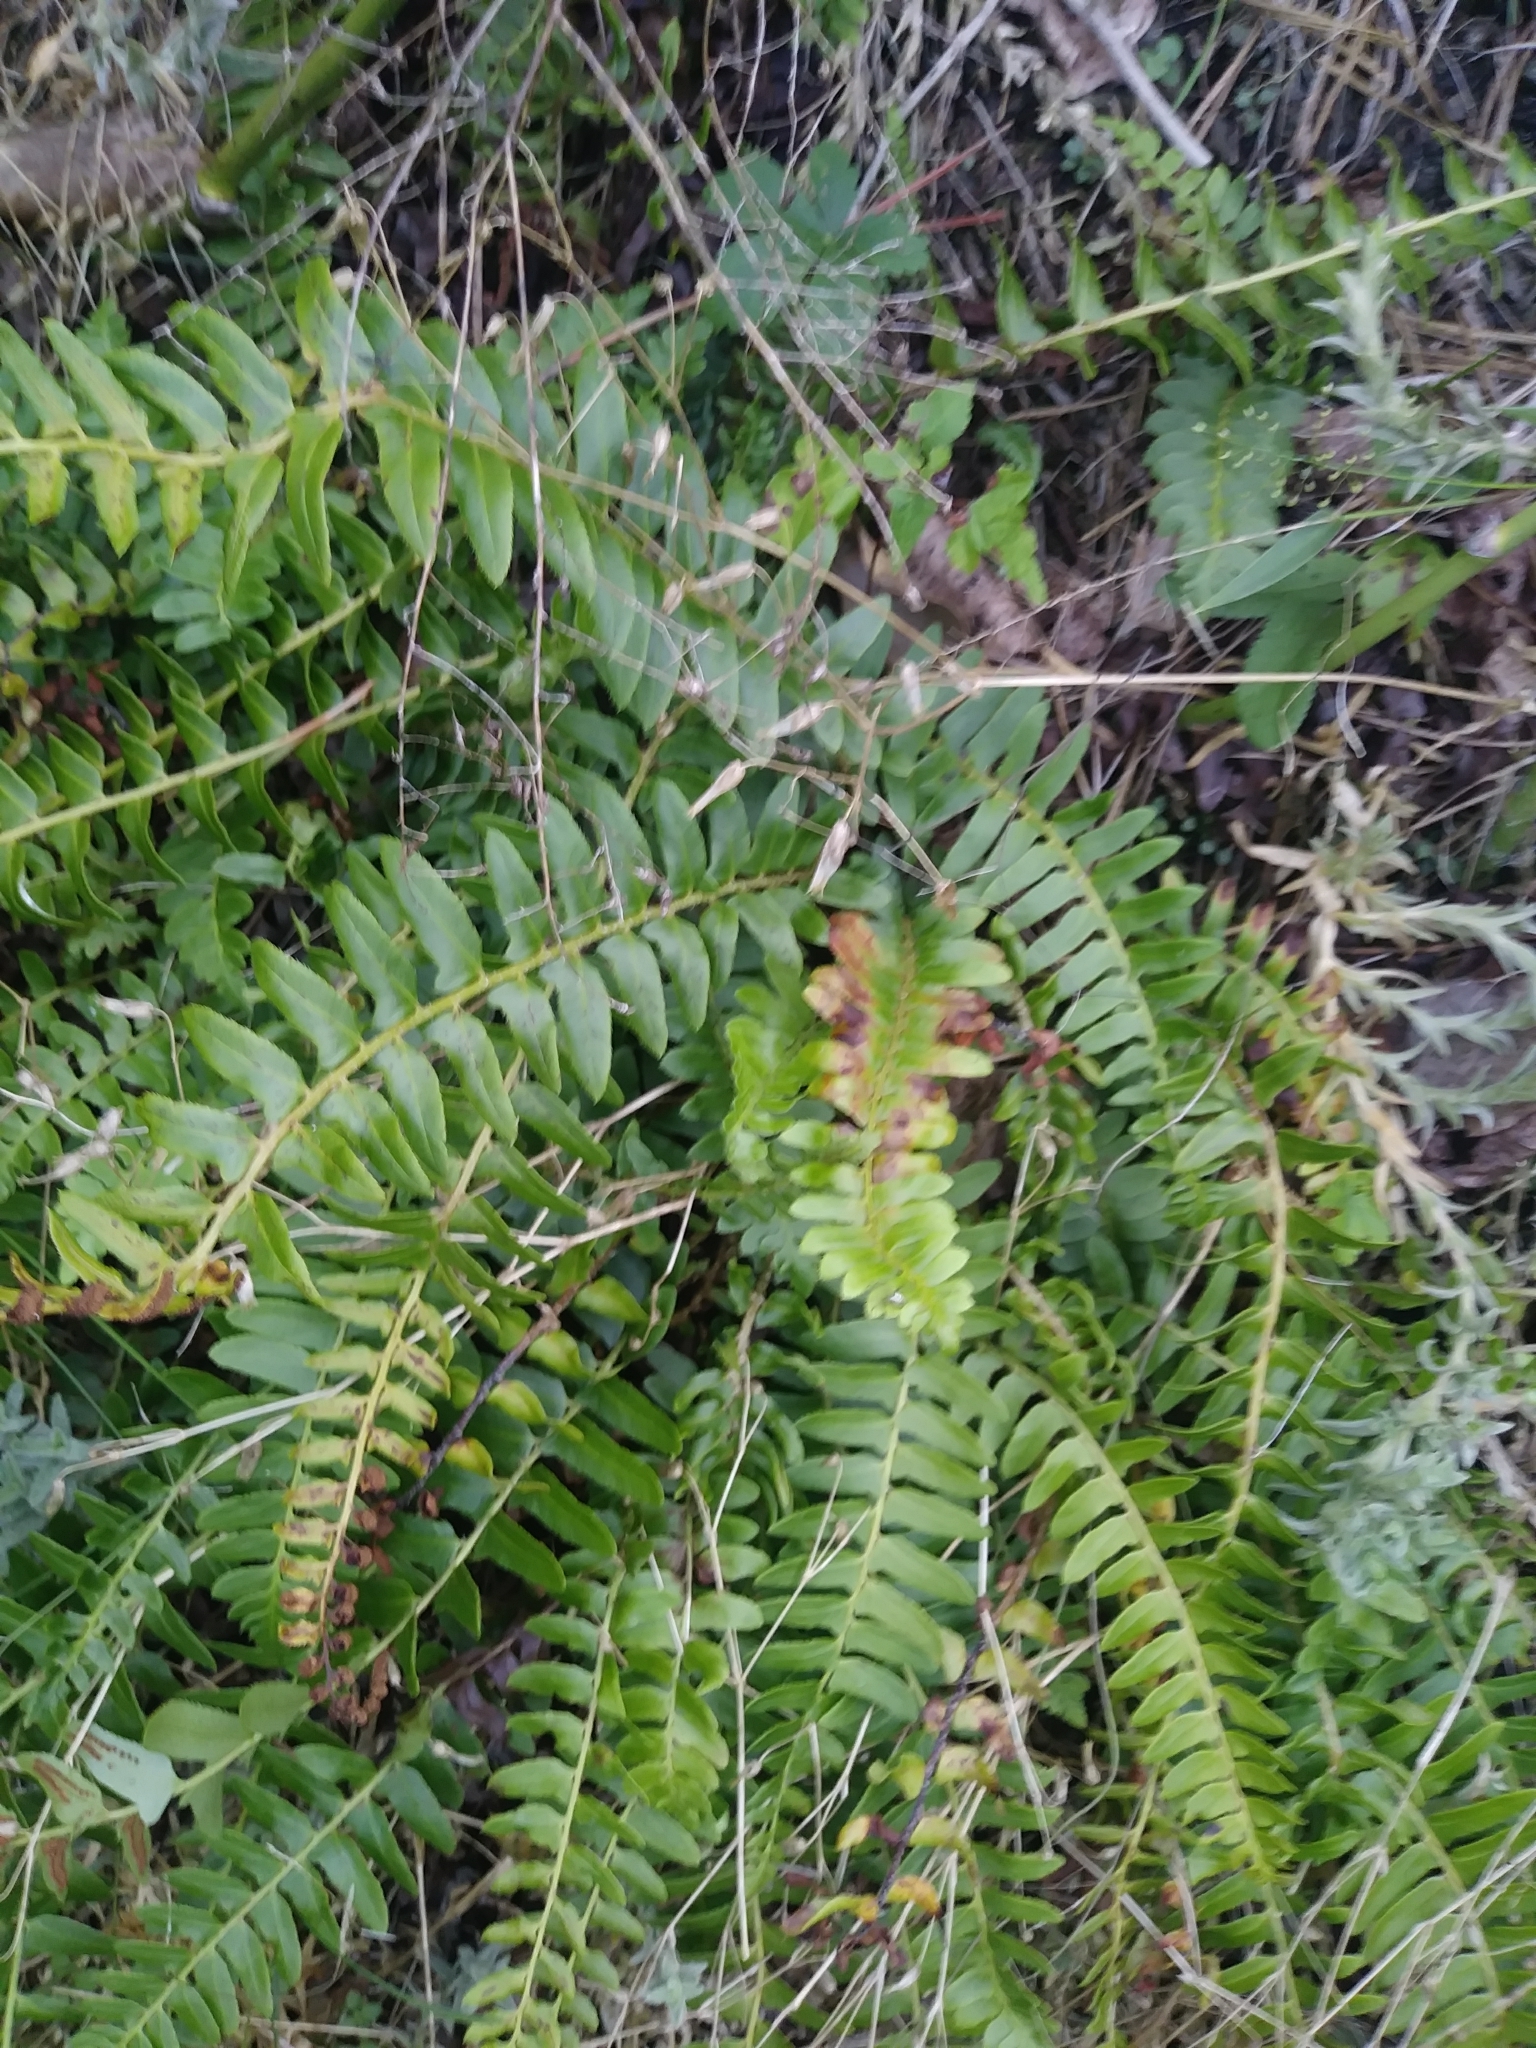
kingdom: Plantae
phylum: Tracheophyta
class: Polypodiopsida
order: Polypodiales
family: Dryopteridaceae
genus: Polystichum
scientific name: Polystichum acrostichoides
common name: Christmas fern
